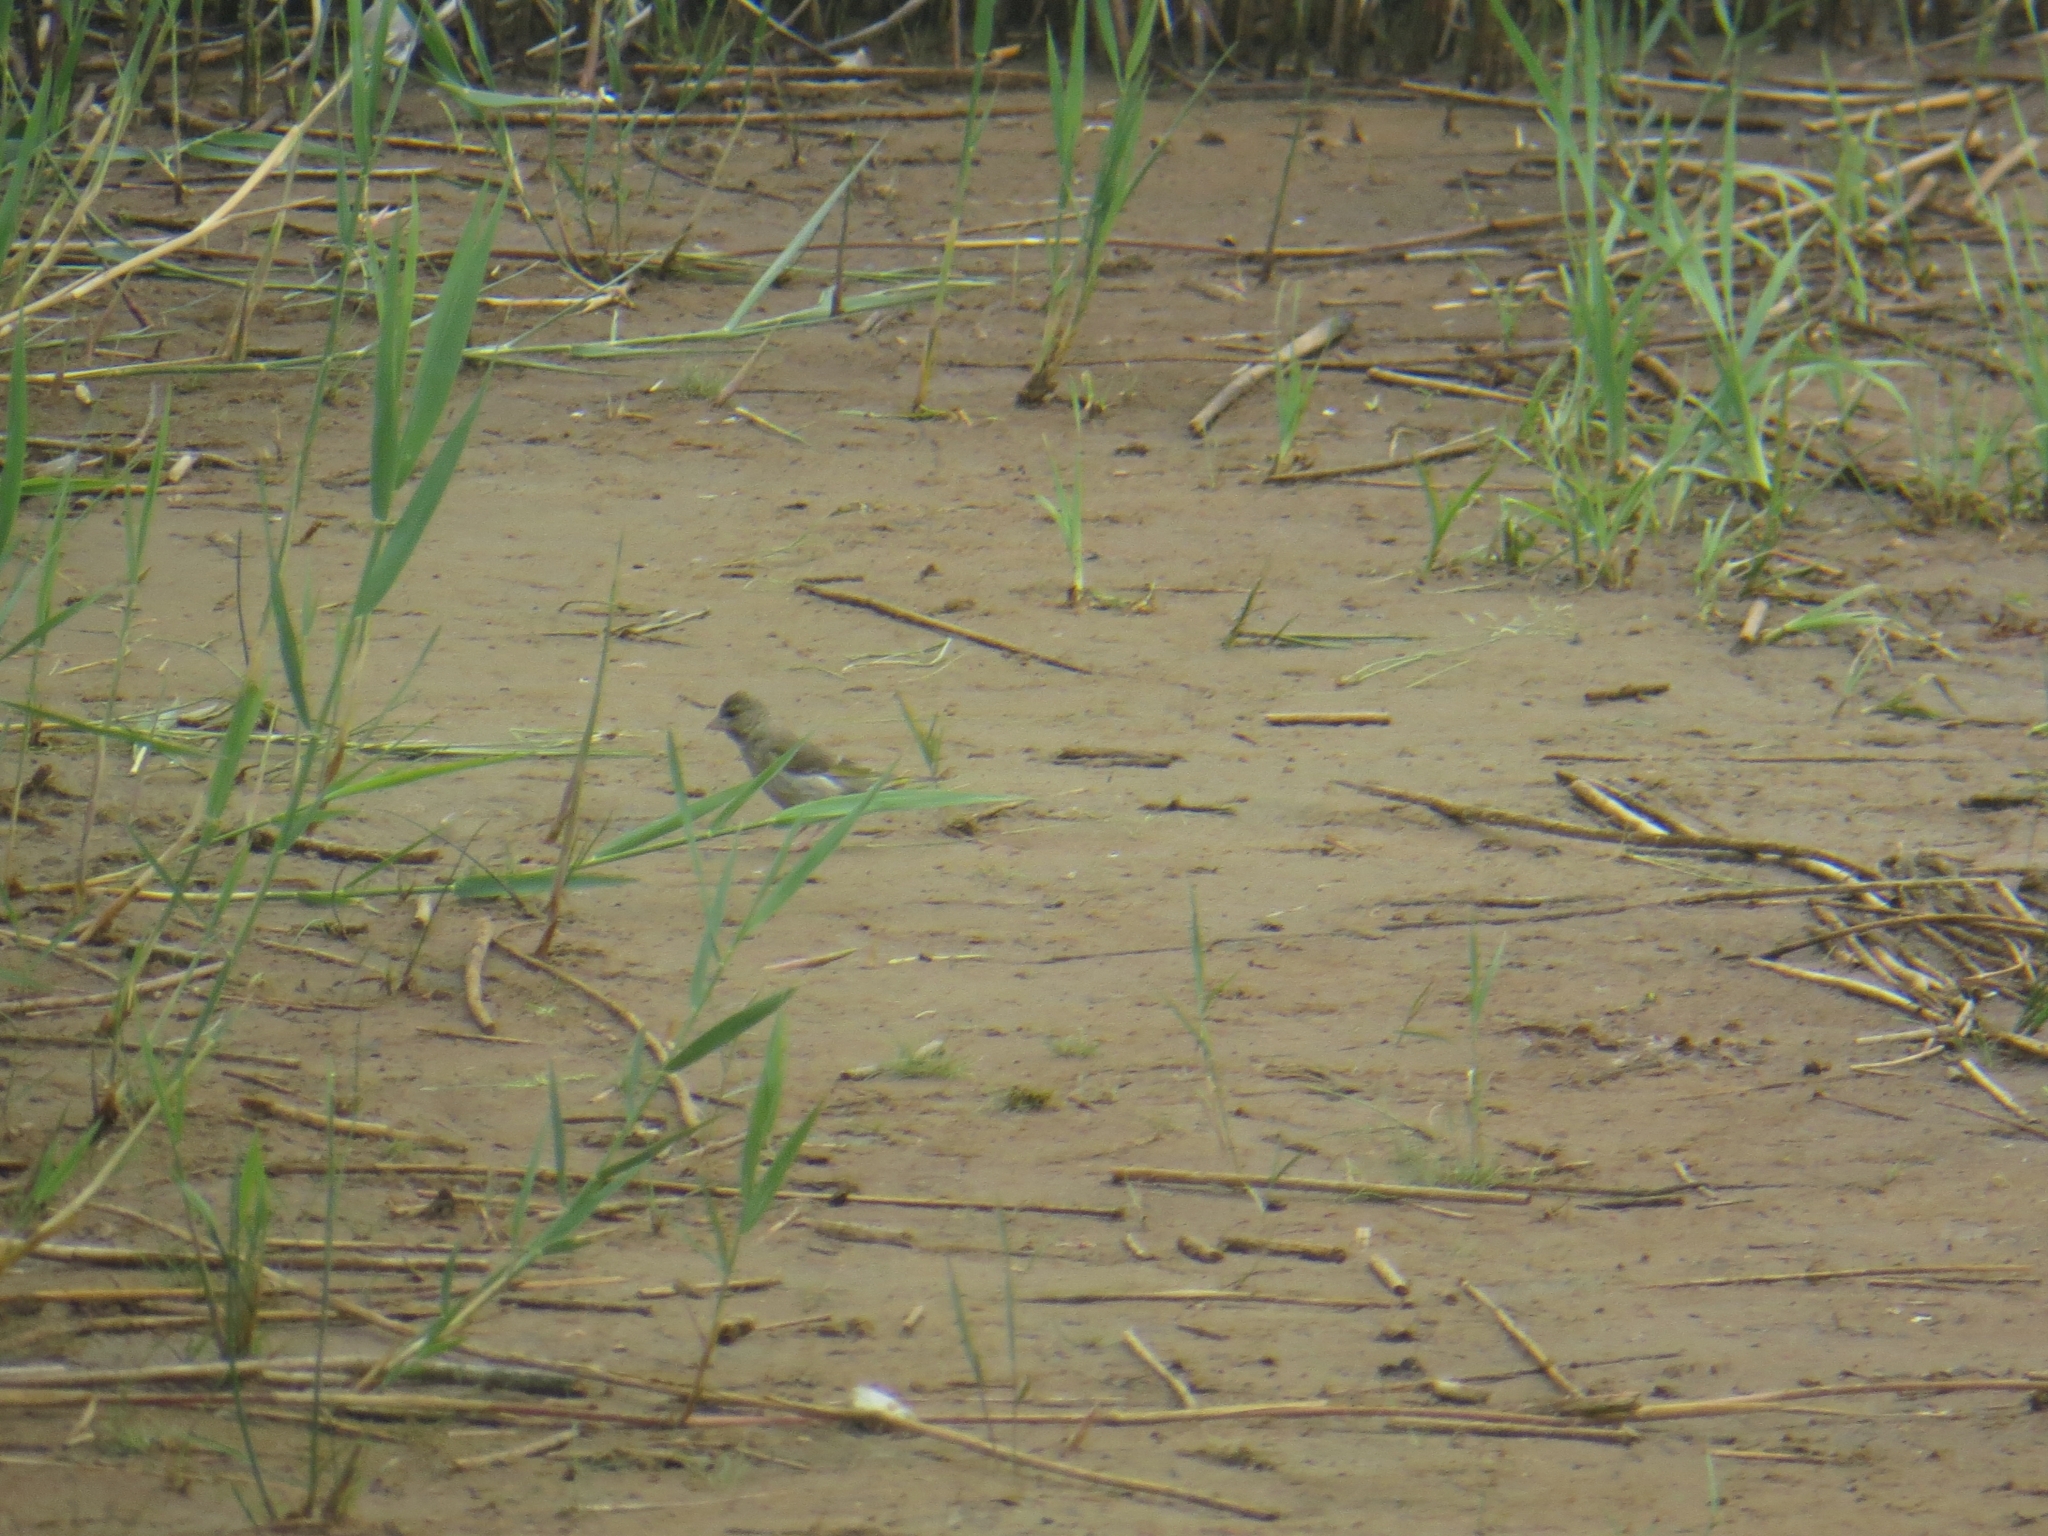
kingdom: Plantae
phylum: Tracheophyta
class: Liliopsida
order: Poales
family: Poaceae
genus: Chloris
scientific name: Chloris chloris
